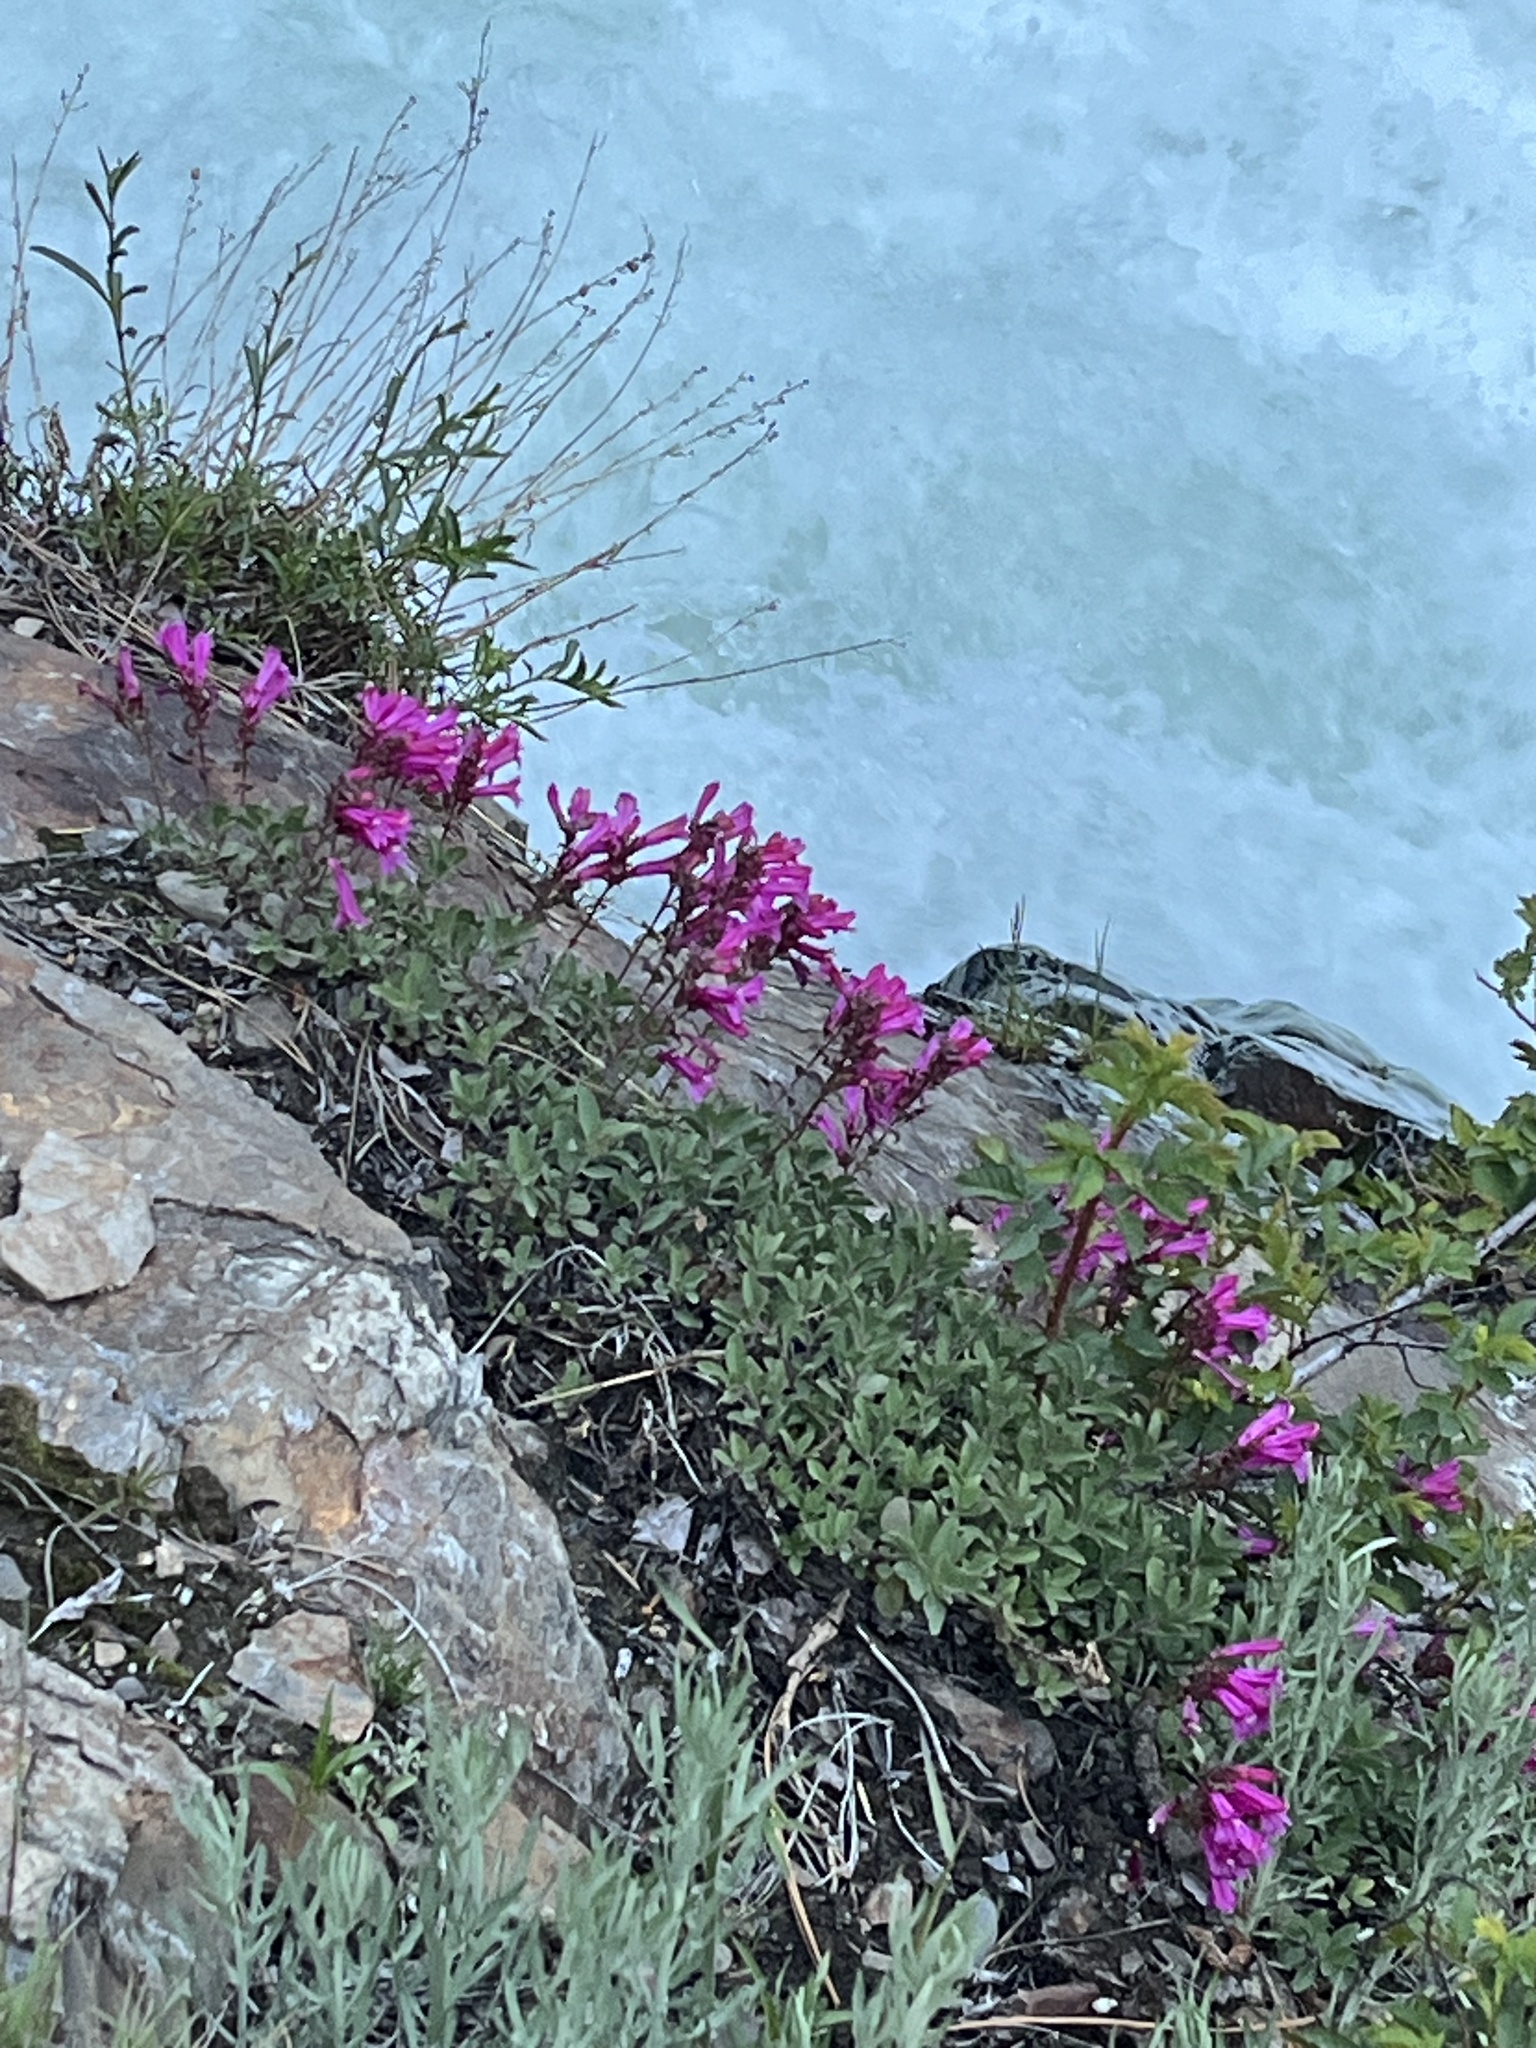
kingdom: Plantae
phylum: Tracheophyta
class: Magnoliopsida
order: Lamiales
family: Plantaginaceae
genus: Penstemon
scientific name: Penstemon newberryi
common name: Mountain-pride
